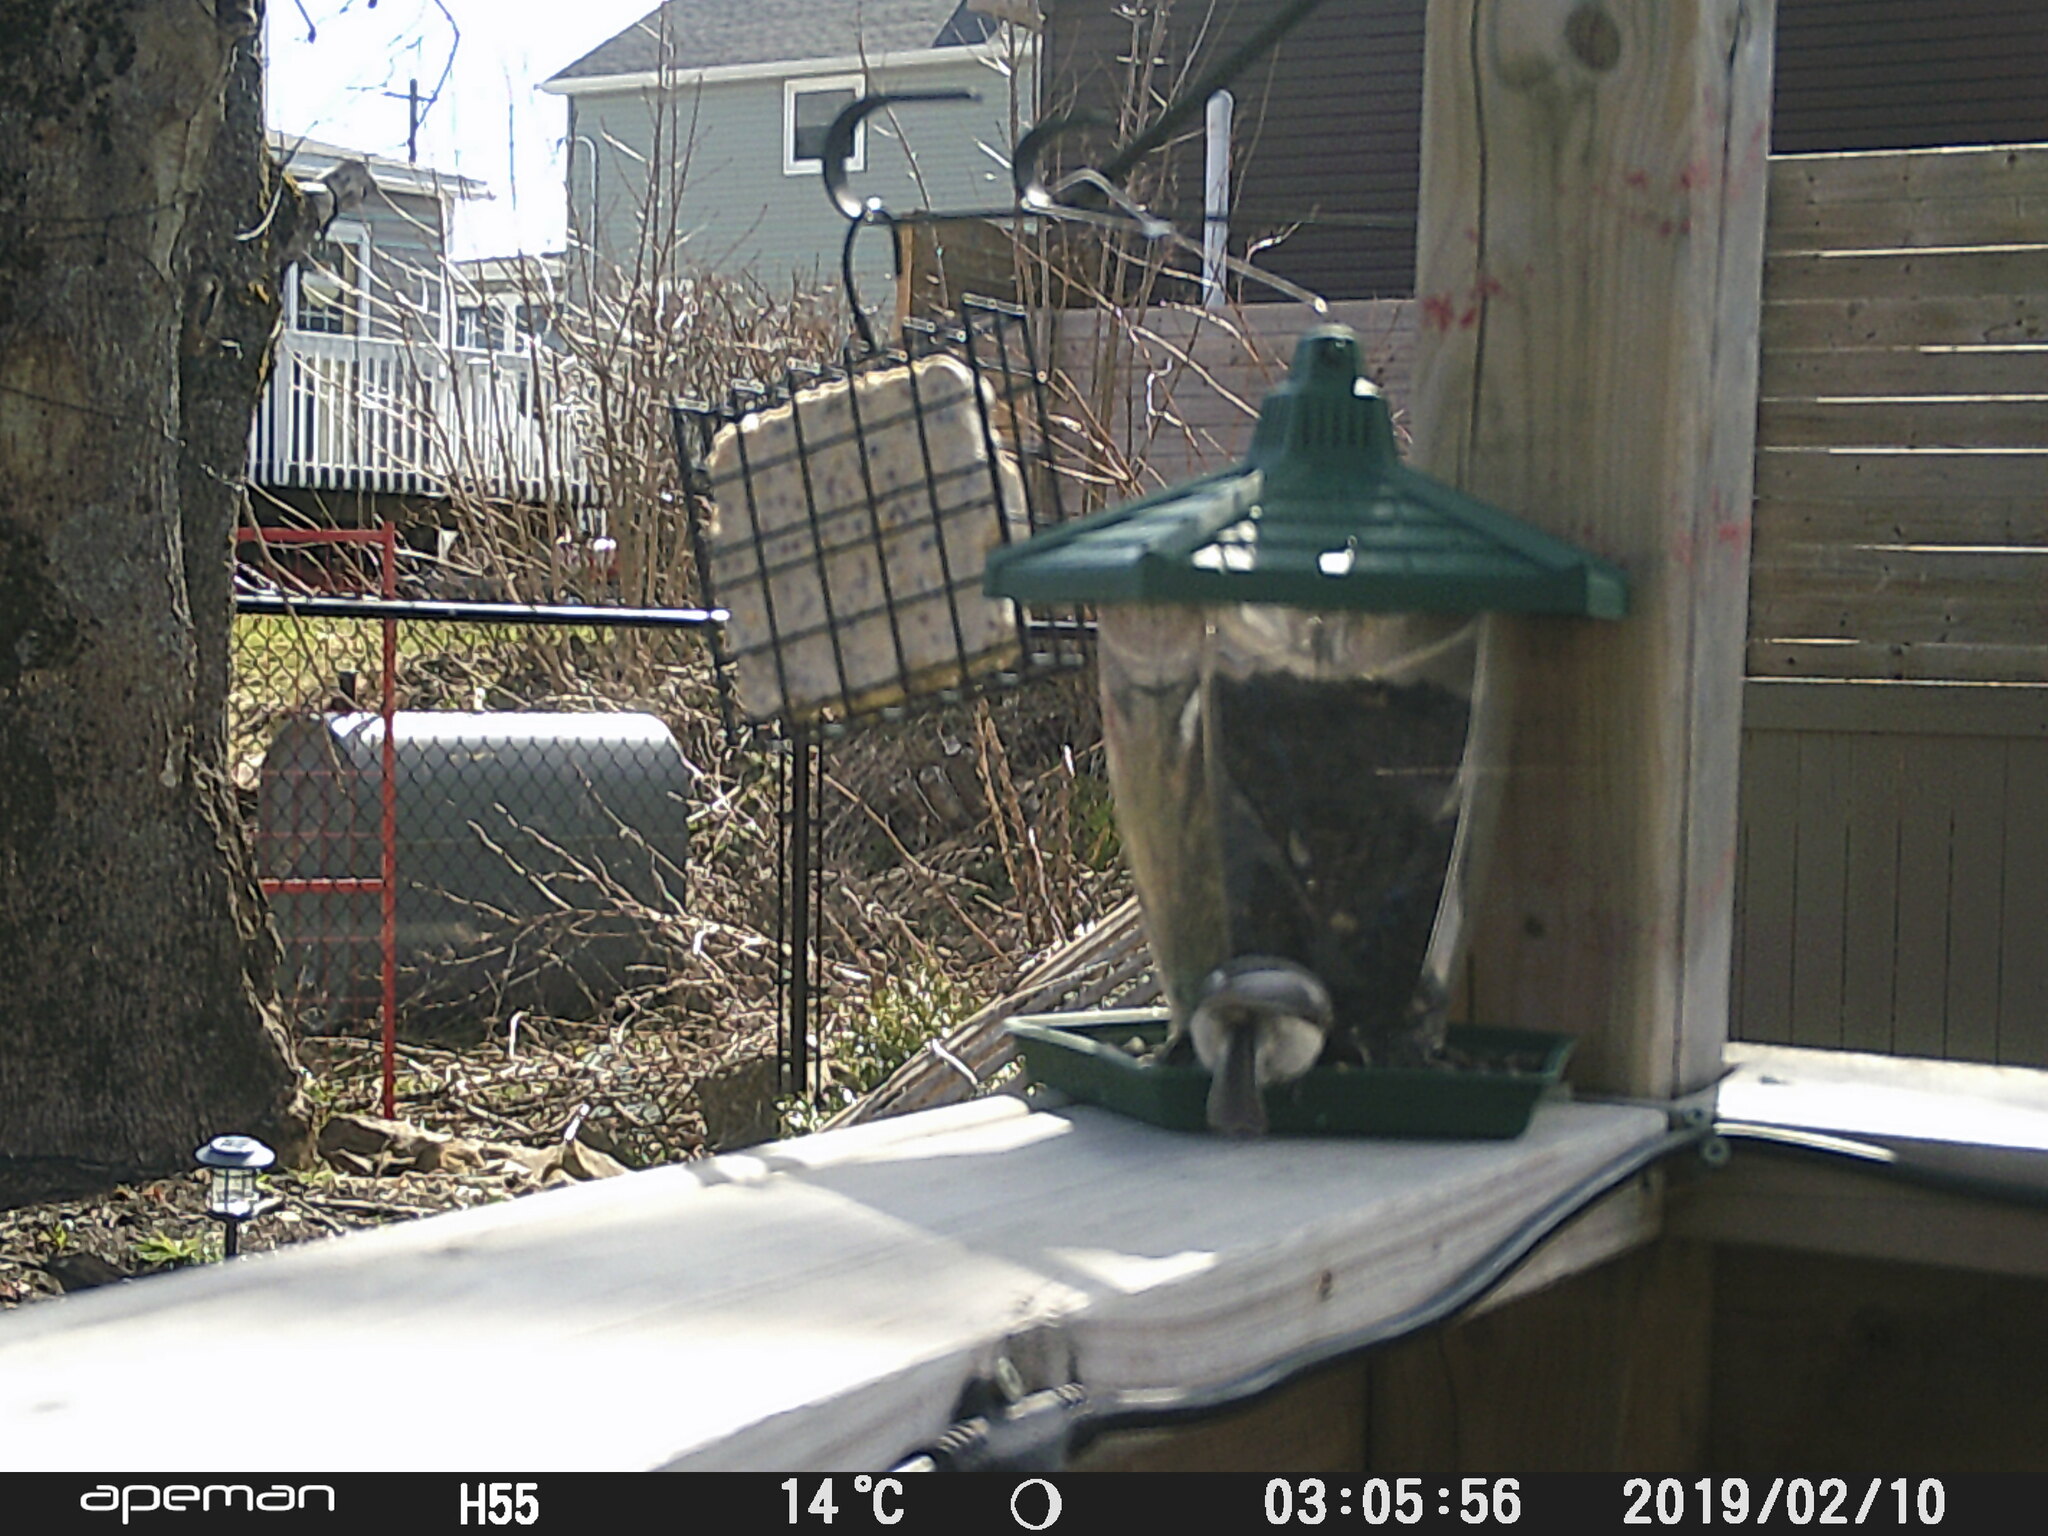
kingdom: Animalia
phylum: Chordata
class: Aves
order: Passeriformes
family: Paridae
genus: Poecile
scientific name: Poecile atricapillus
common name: Black-capped chickadee
